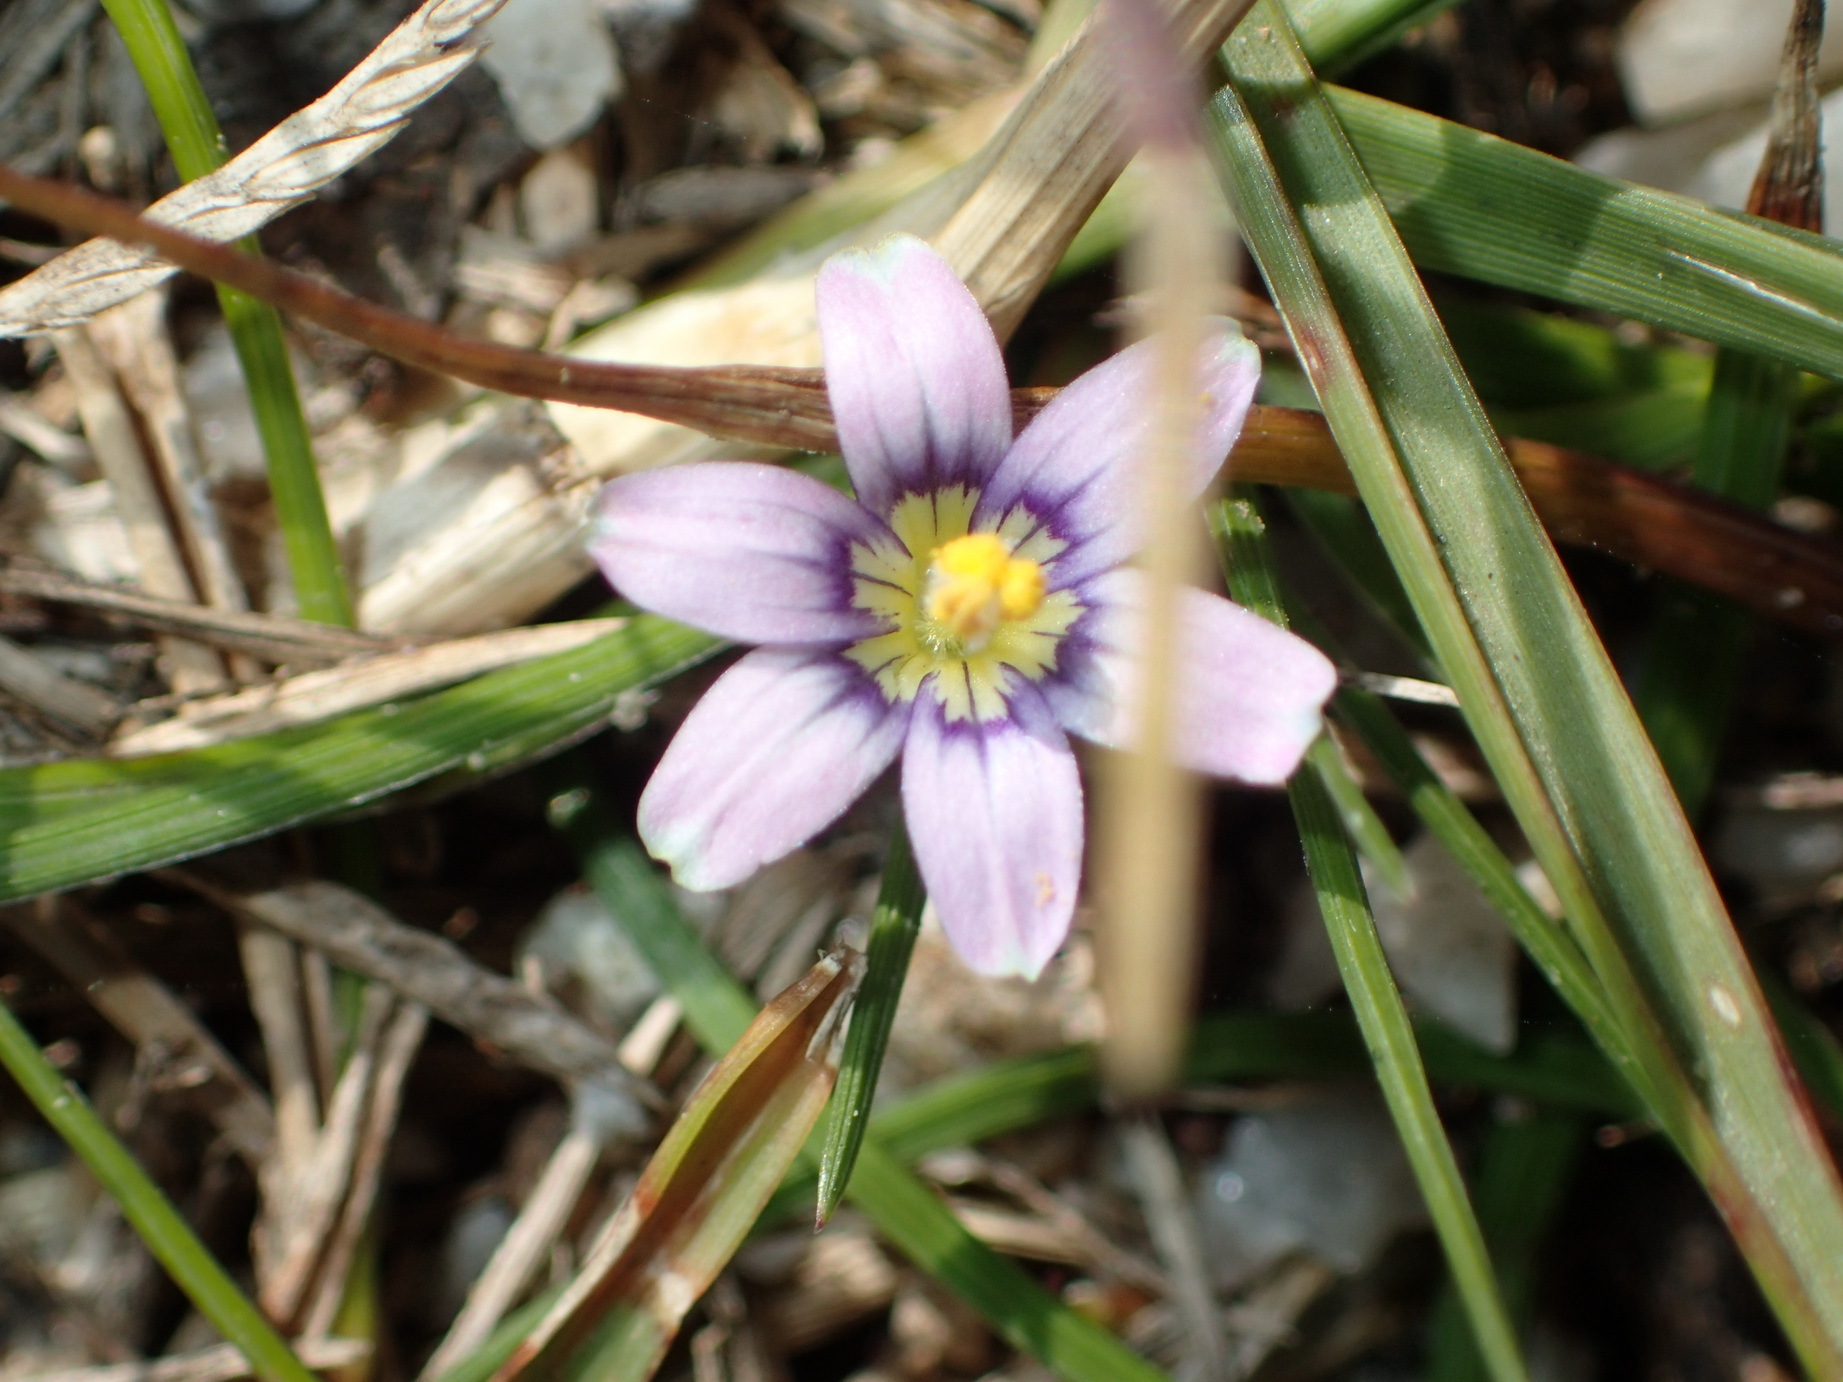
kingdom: Plantae
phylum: Tracheophyta
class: Liliopsida
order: Asparagales
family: Iridaceae
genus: Sisyrinchium
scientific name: Sisyrinchium micranthum
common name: Bermuda pigroot
